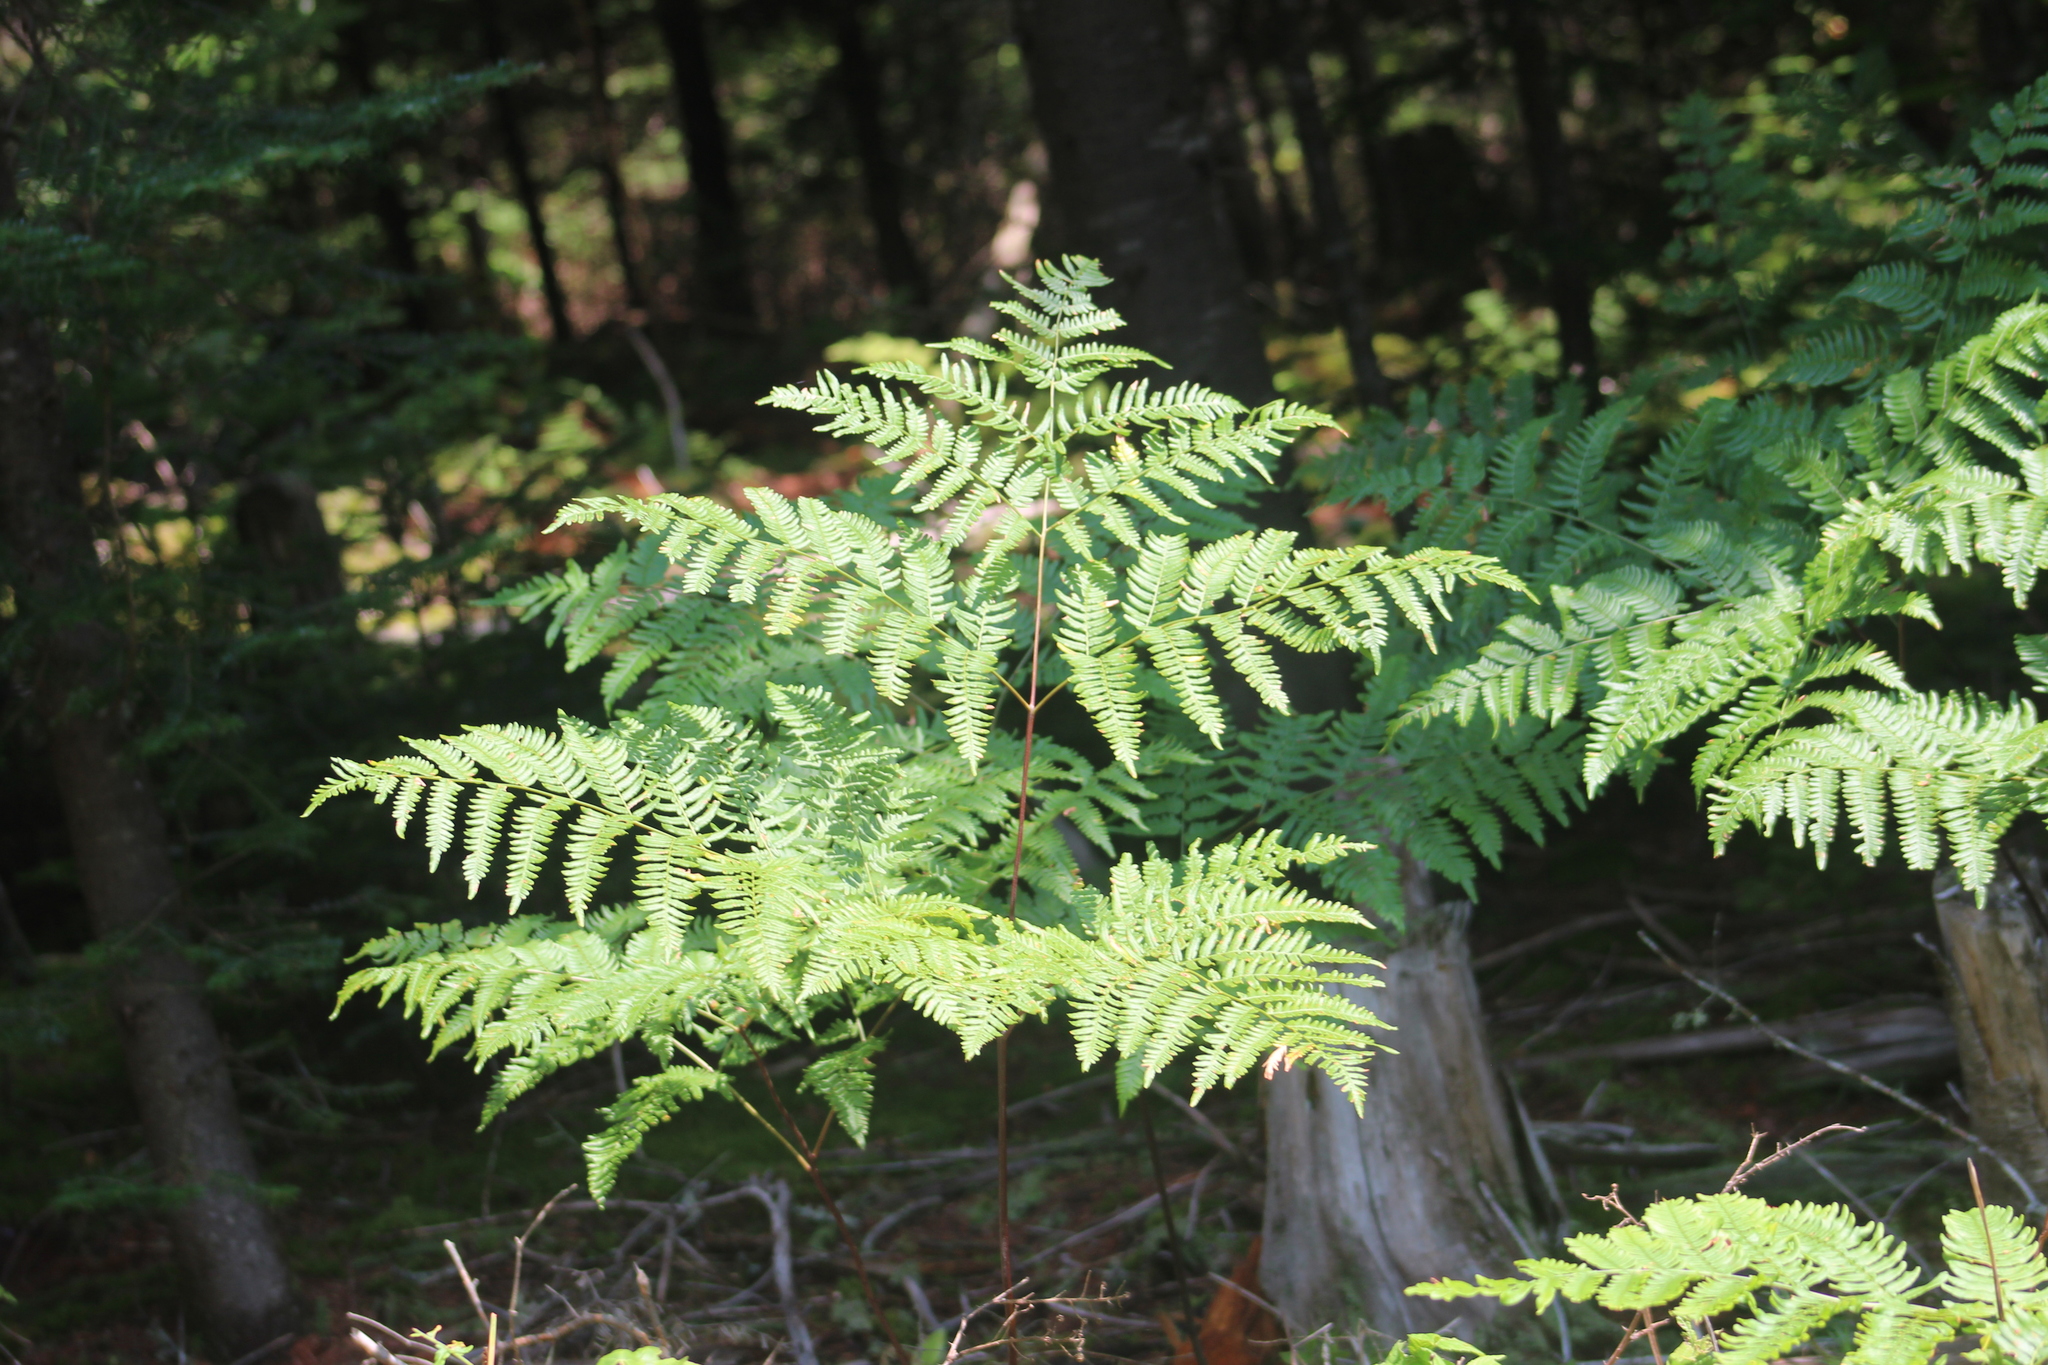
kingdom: Plantae
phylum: Tracheophyta
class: Polypodiopsida
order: Polypodiales
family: Dennstaedtiaceae
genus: Pteridium
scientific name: Pteridium aquilinum
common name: Bracken
